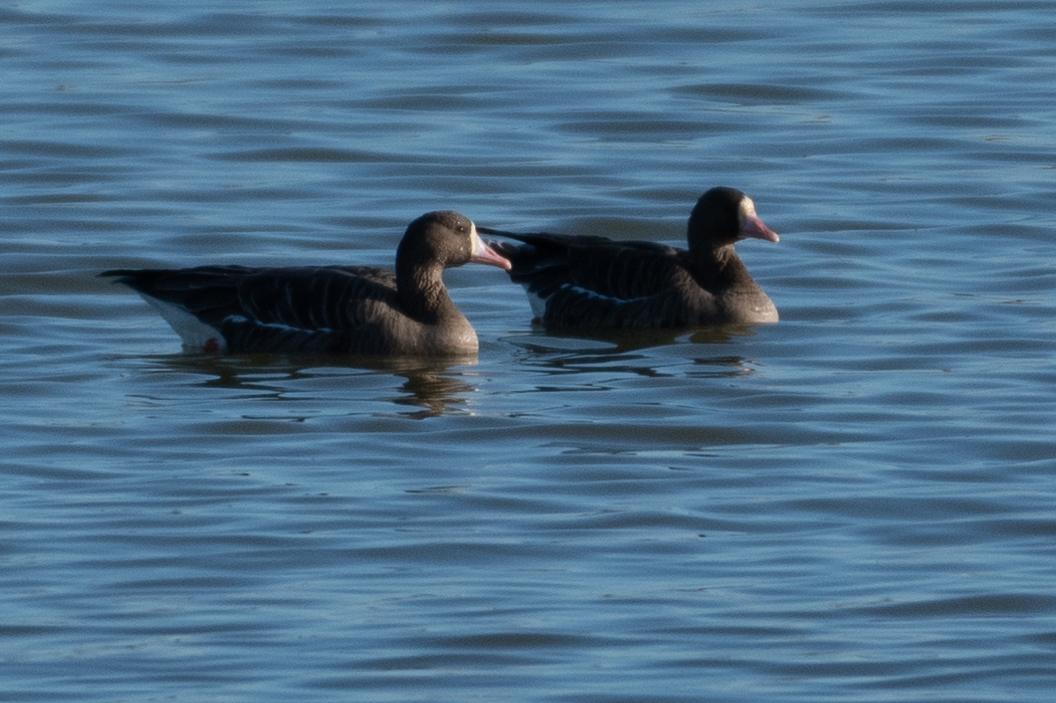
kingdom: Animalia
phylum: Chordata
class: Aves
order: Anseriformes
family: Anatidae
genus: Anser
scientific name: Anser albifrons
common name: Greater white-fronted goose
